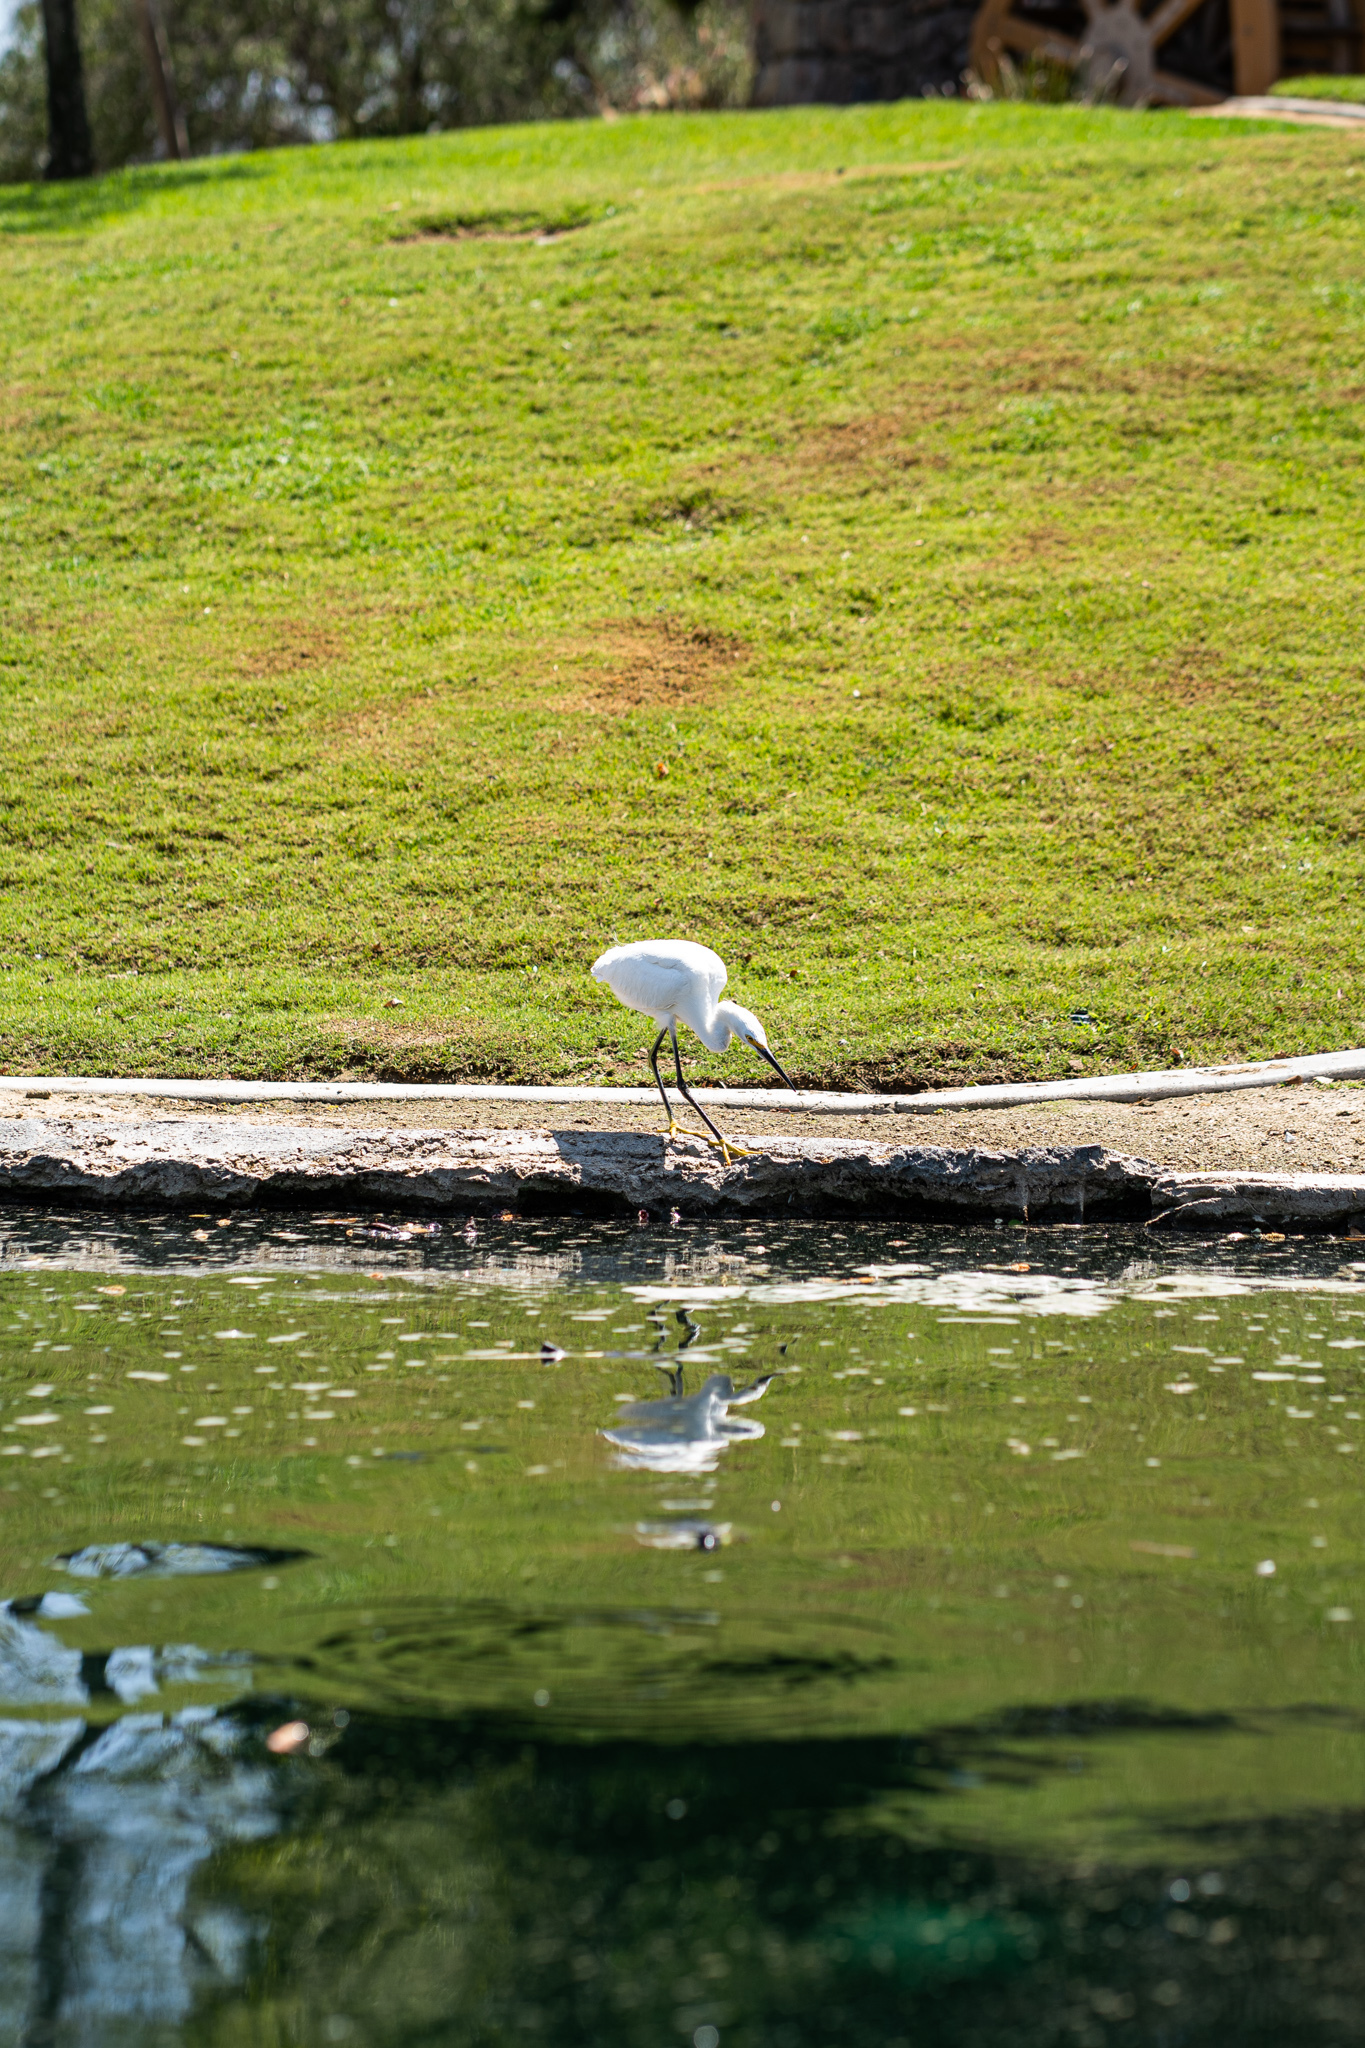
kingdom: Animalia
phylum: Chordata
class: Aves
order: Pelecaniformes
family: Ardeidae
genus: Egretta
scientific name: Egretta thula
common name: Snowy egret
